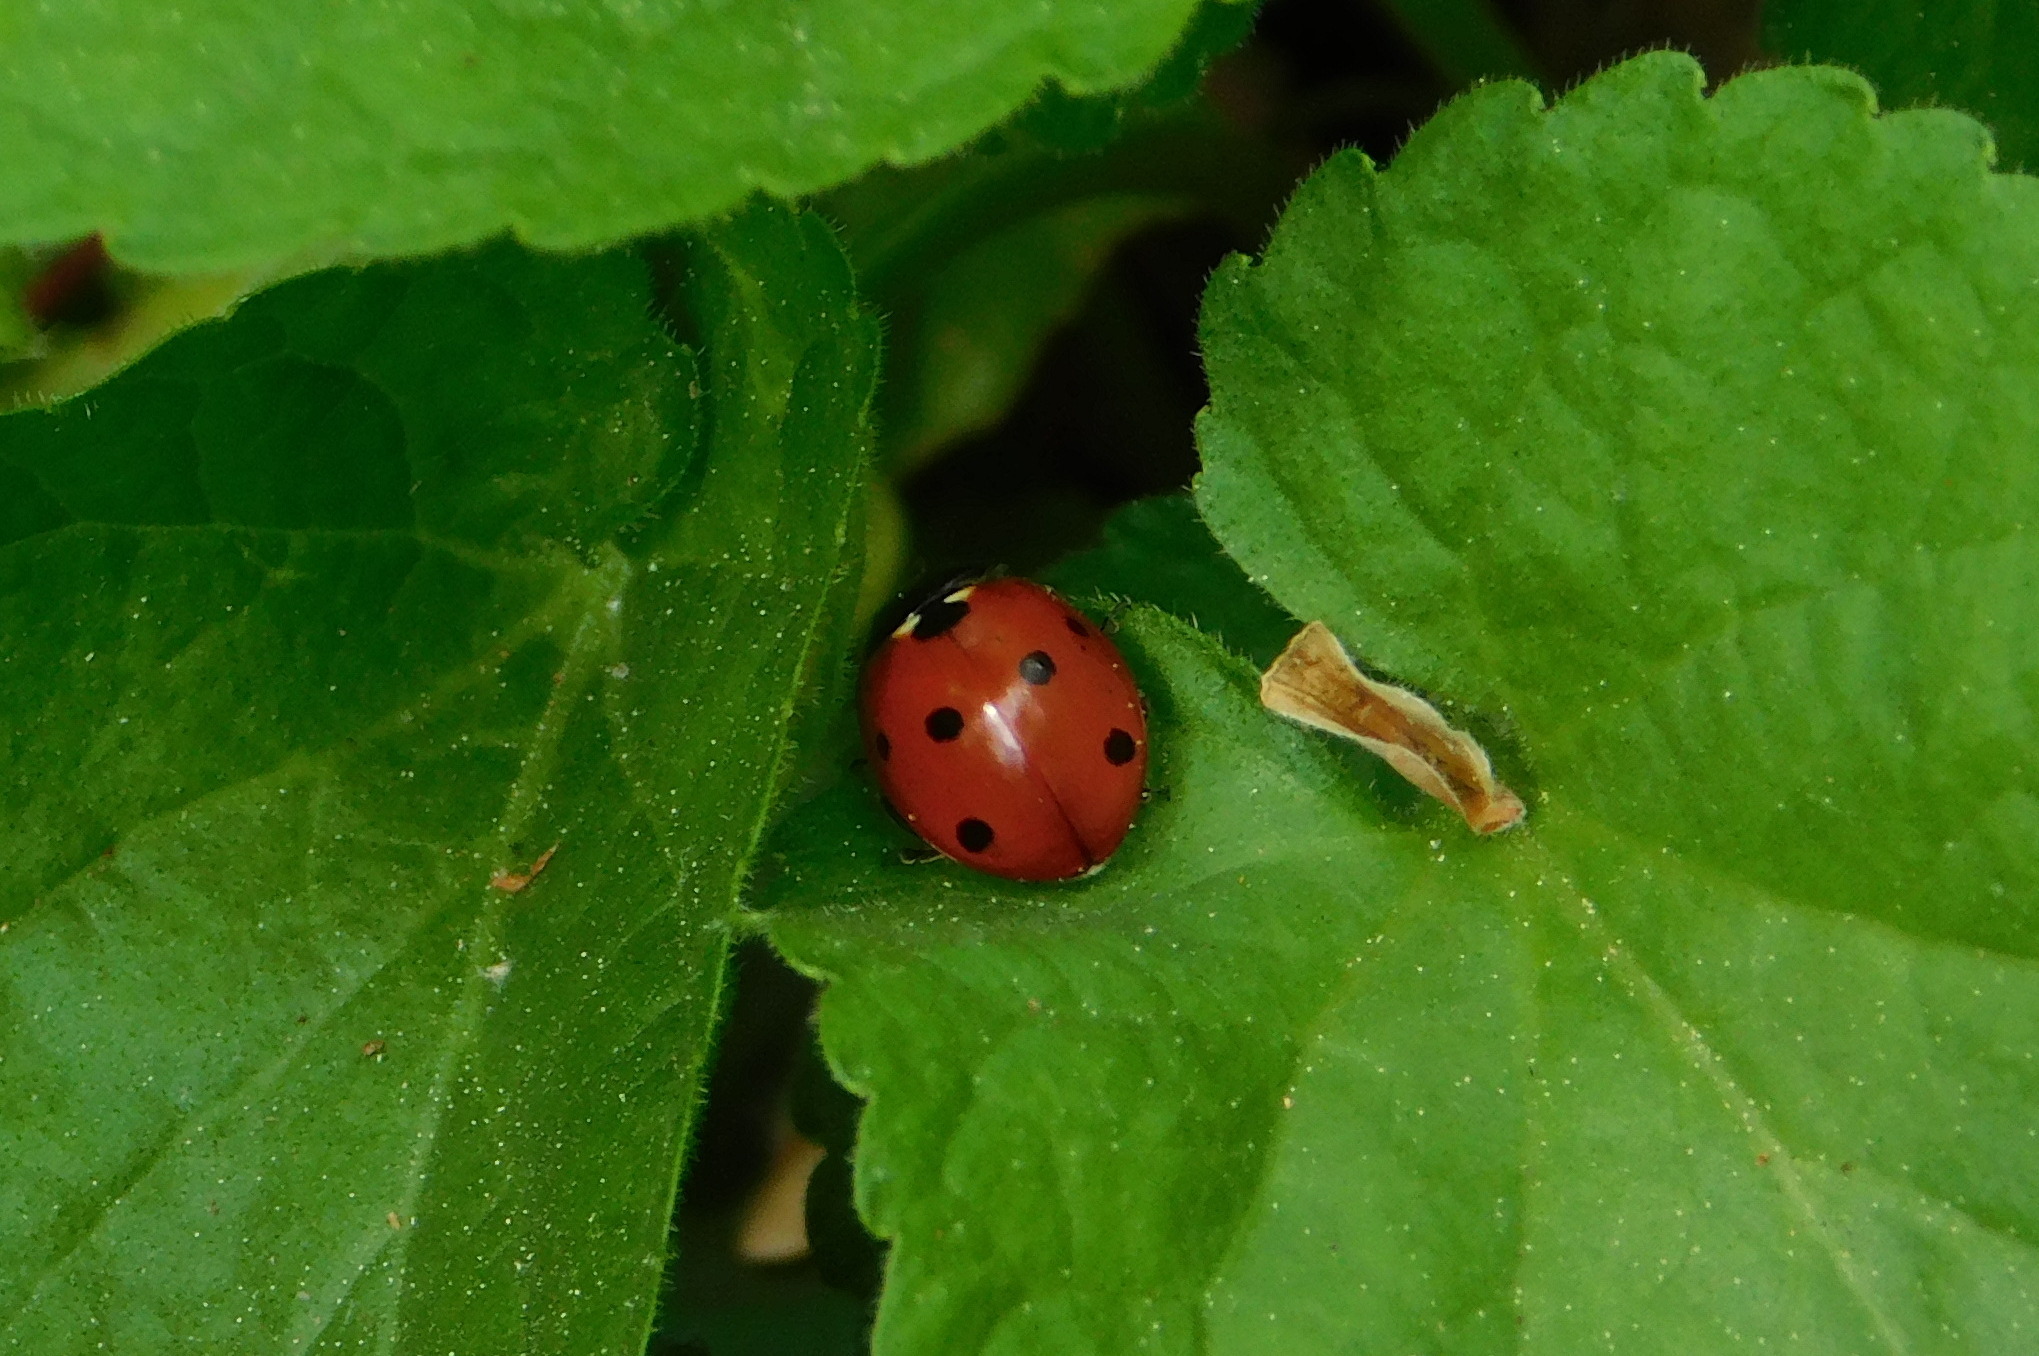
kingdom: Animalia
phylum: Arthropoda
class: Insecta
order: Coleoptera
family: Coccinellidae
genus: Coccinella
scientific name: Coccinella septempunctata
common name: Sevenspotted lady beetle
